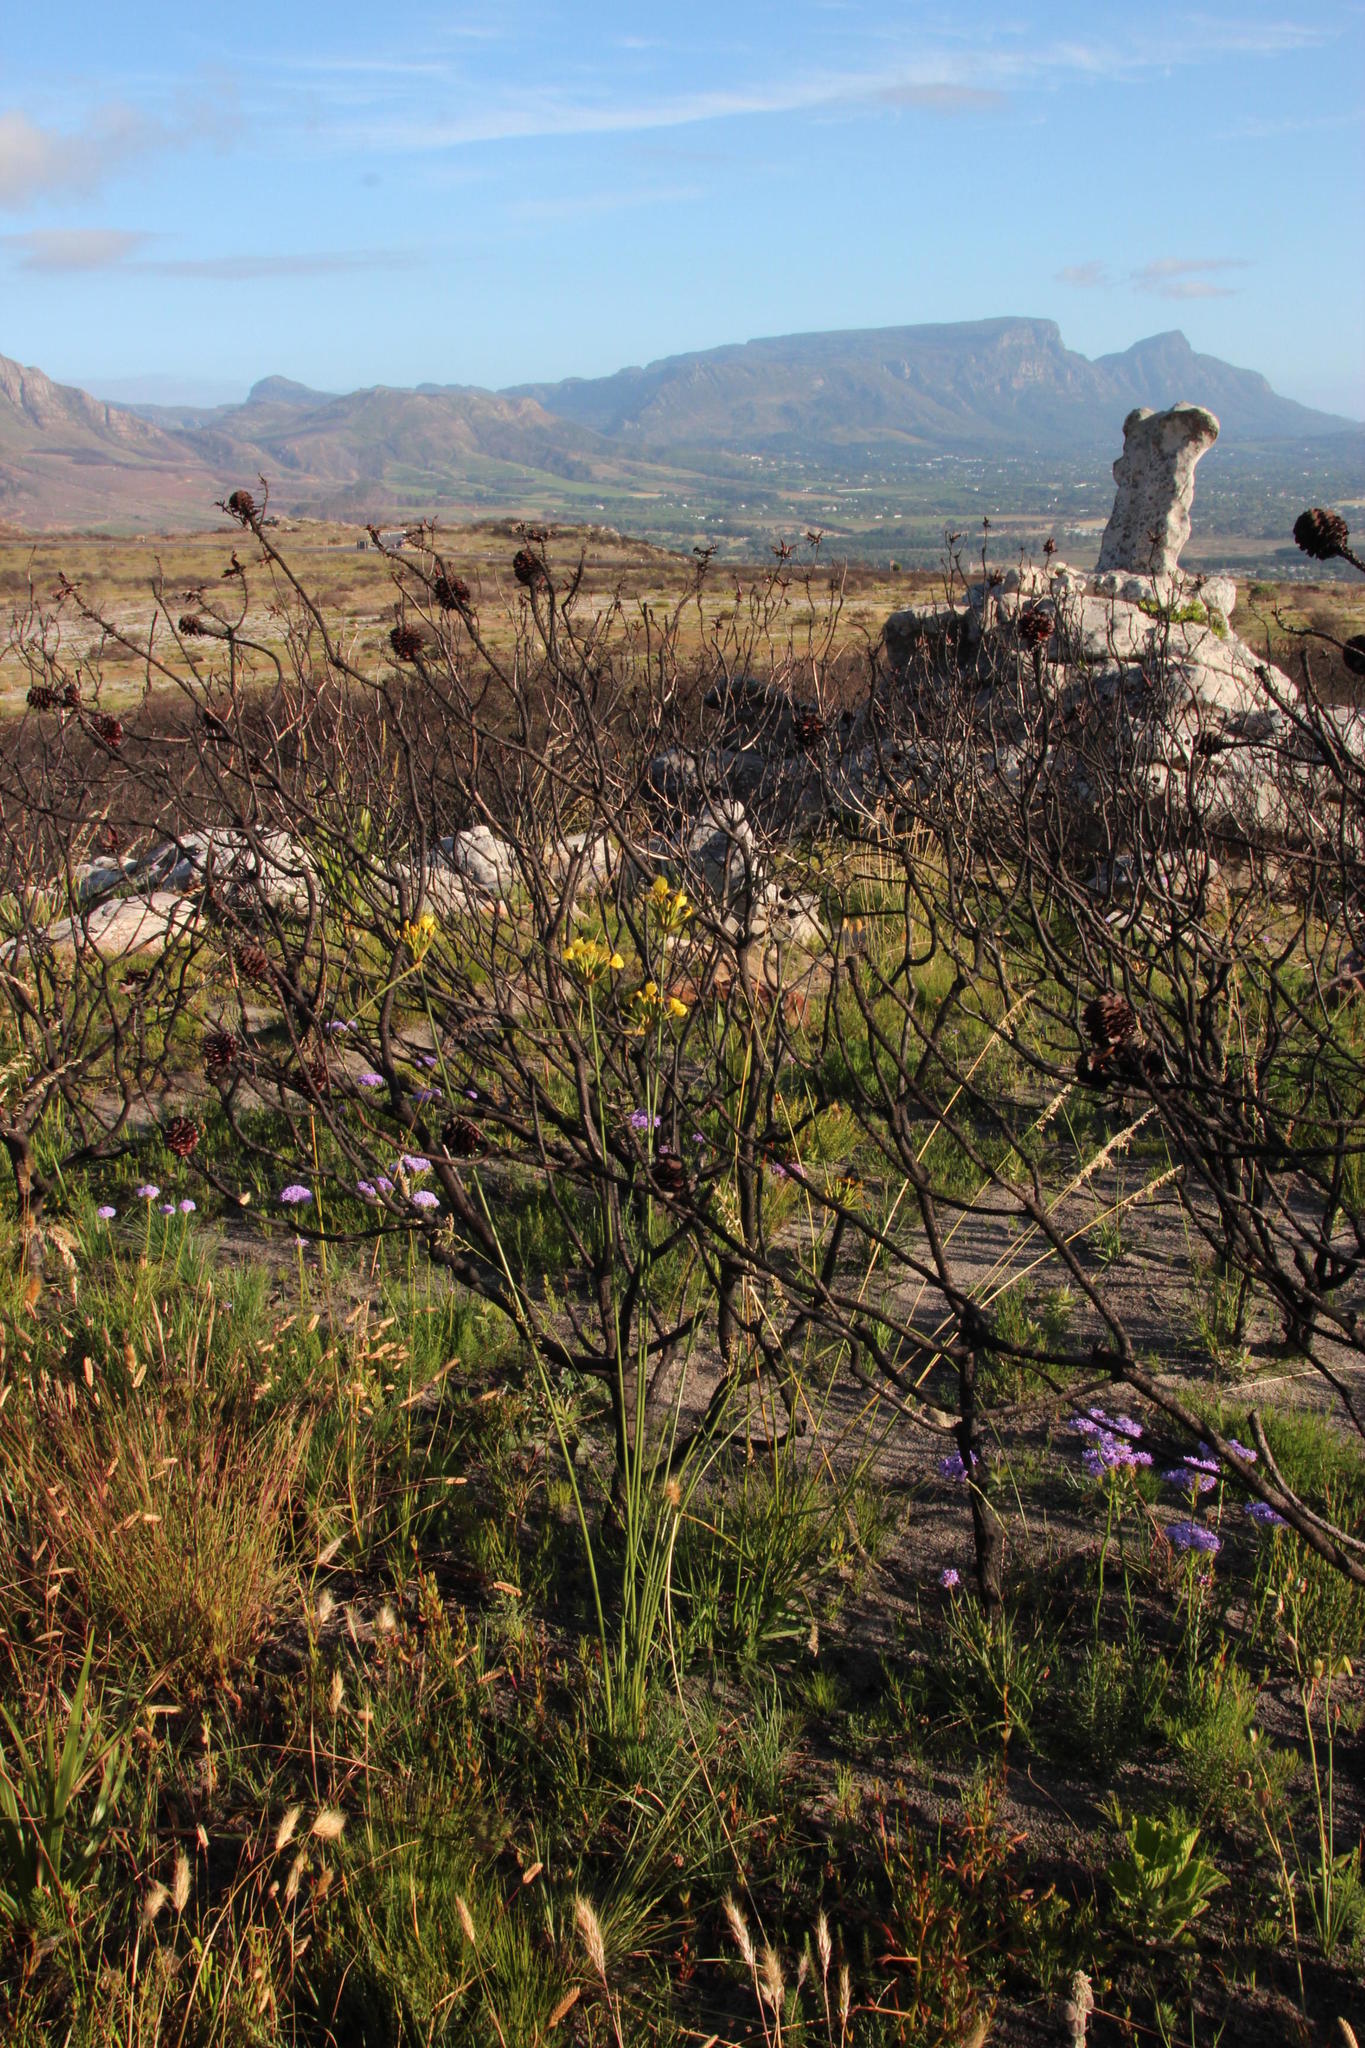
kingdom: Plantae
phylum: Tracheophyta
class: Liliopsida
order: Asparagales
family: Iridaceae
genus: Bobartia
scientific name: Bobartia indica
